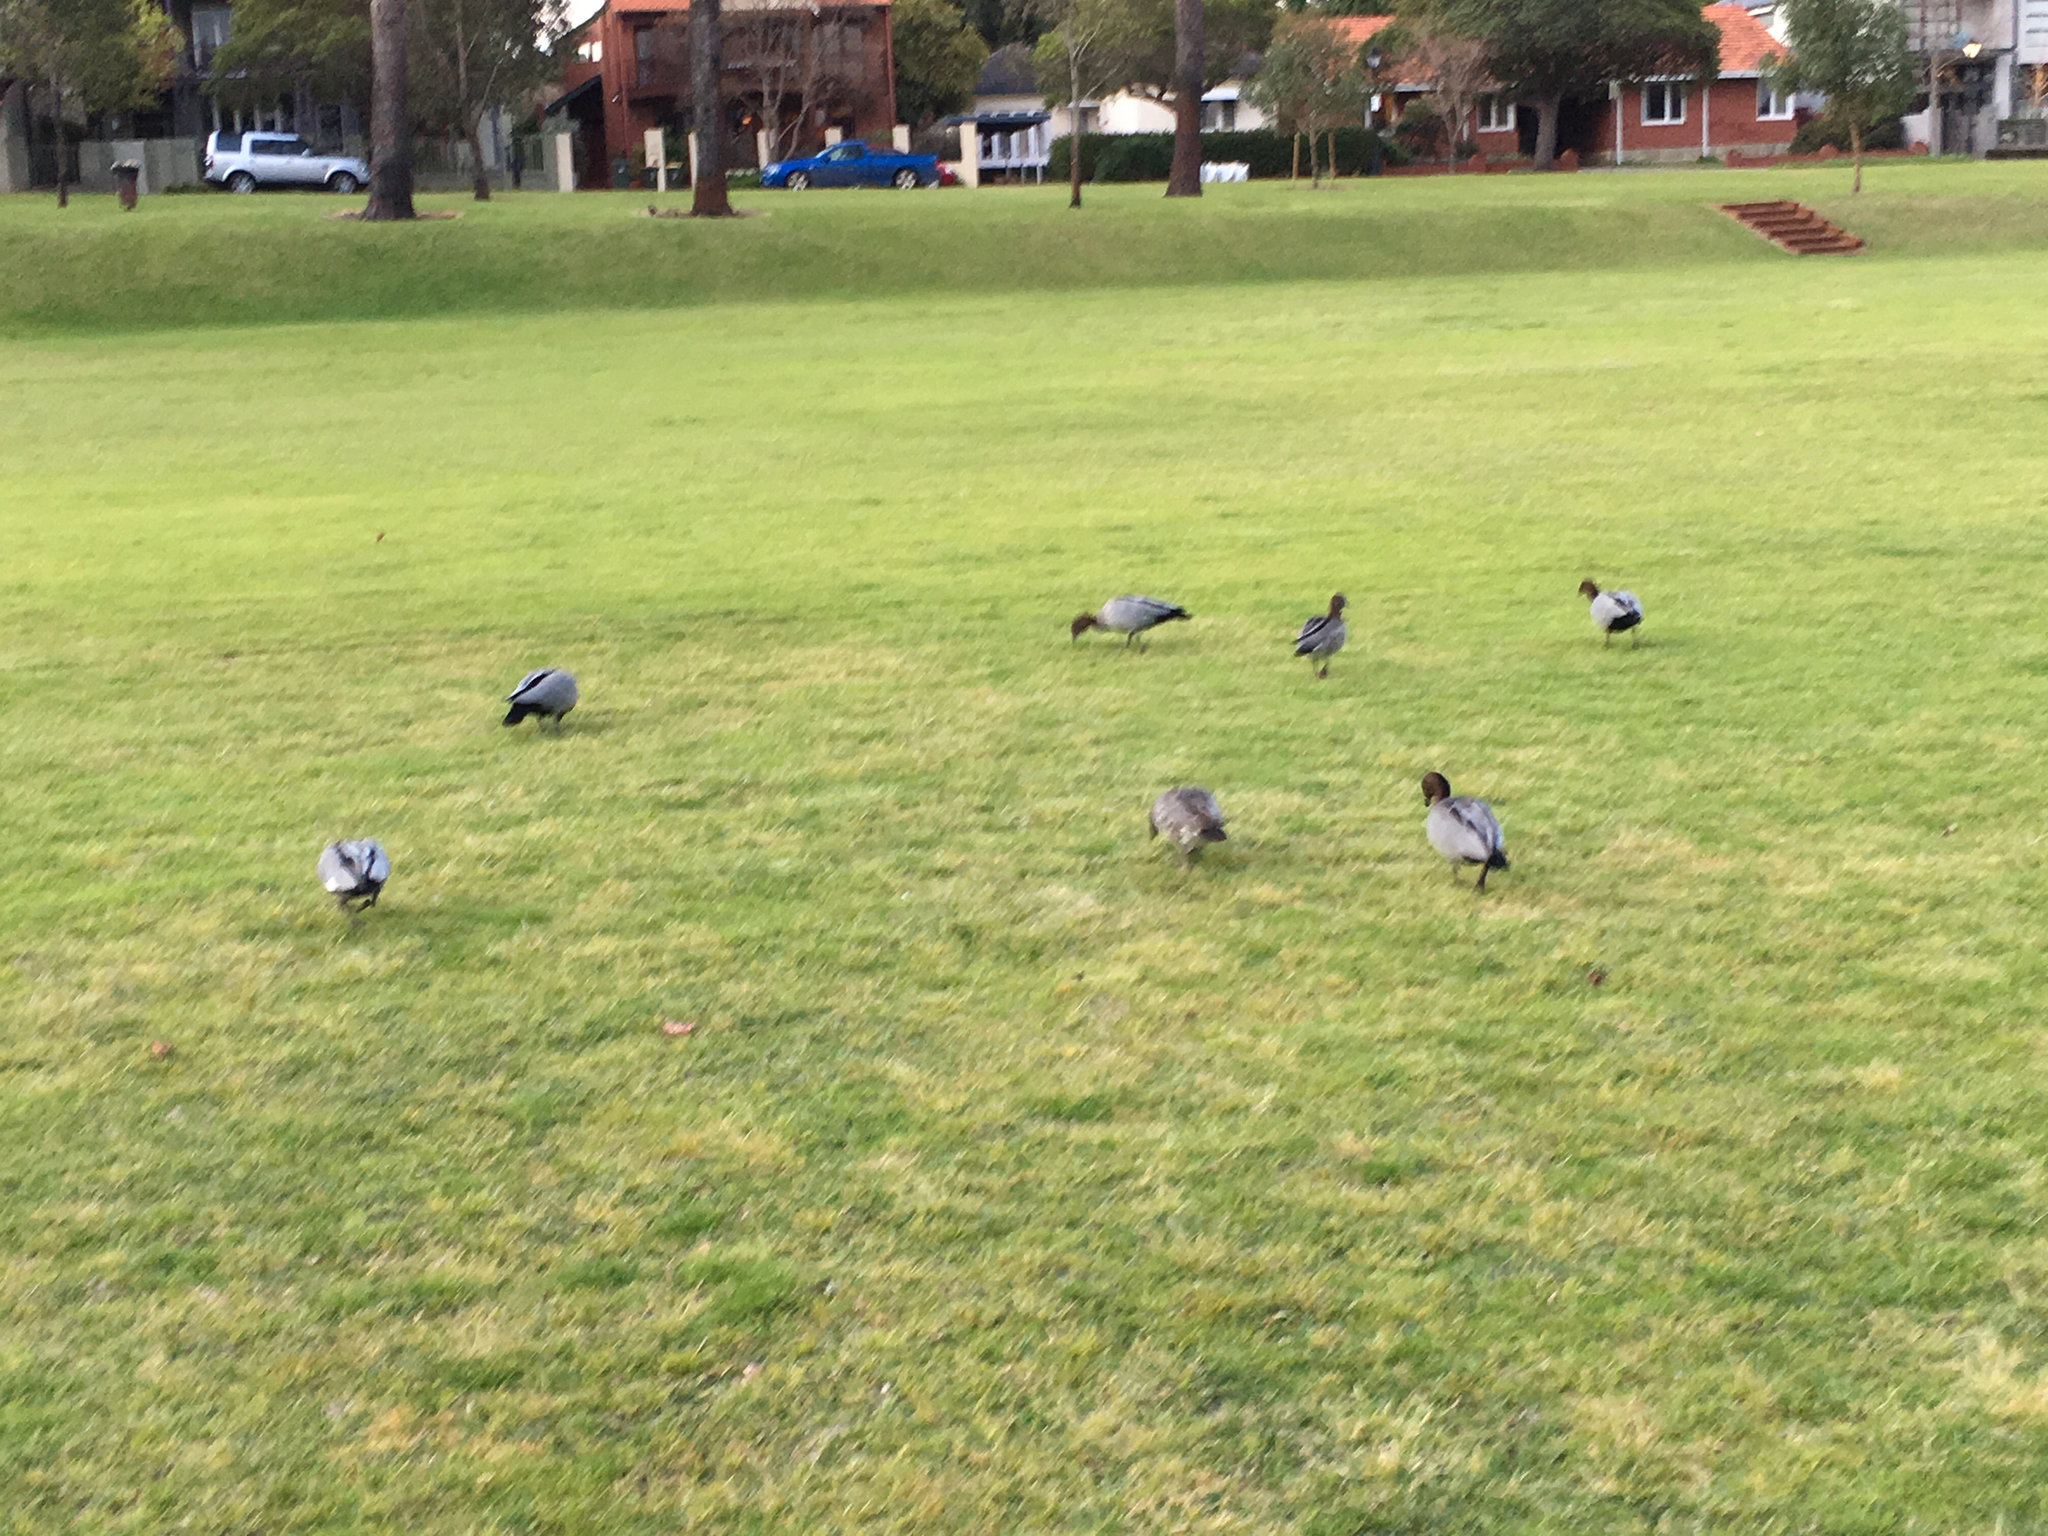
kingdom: Animalia
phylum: Chordata
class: Aves
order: Anseriformes
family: Anatidae
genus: Chenonetta
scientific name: Chenonetta jubata
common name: Maned duck
